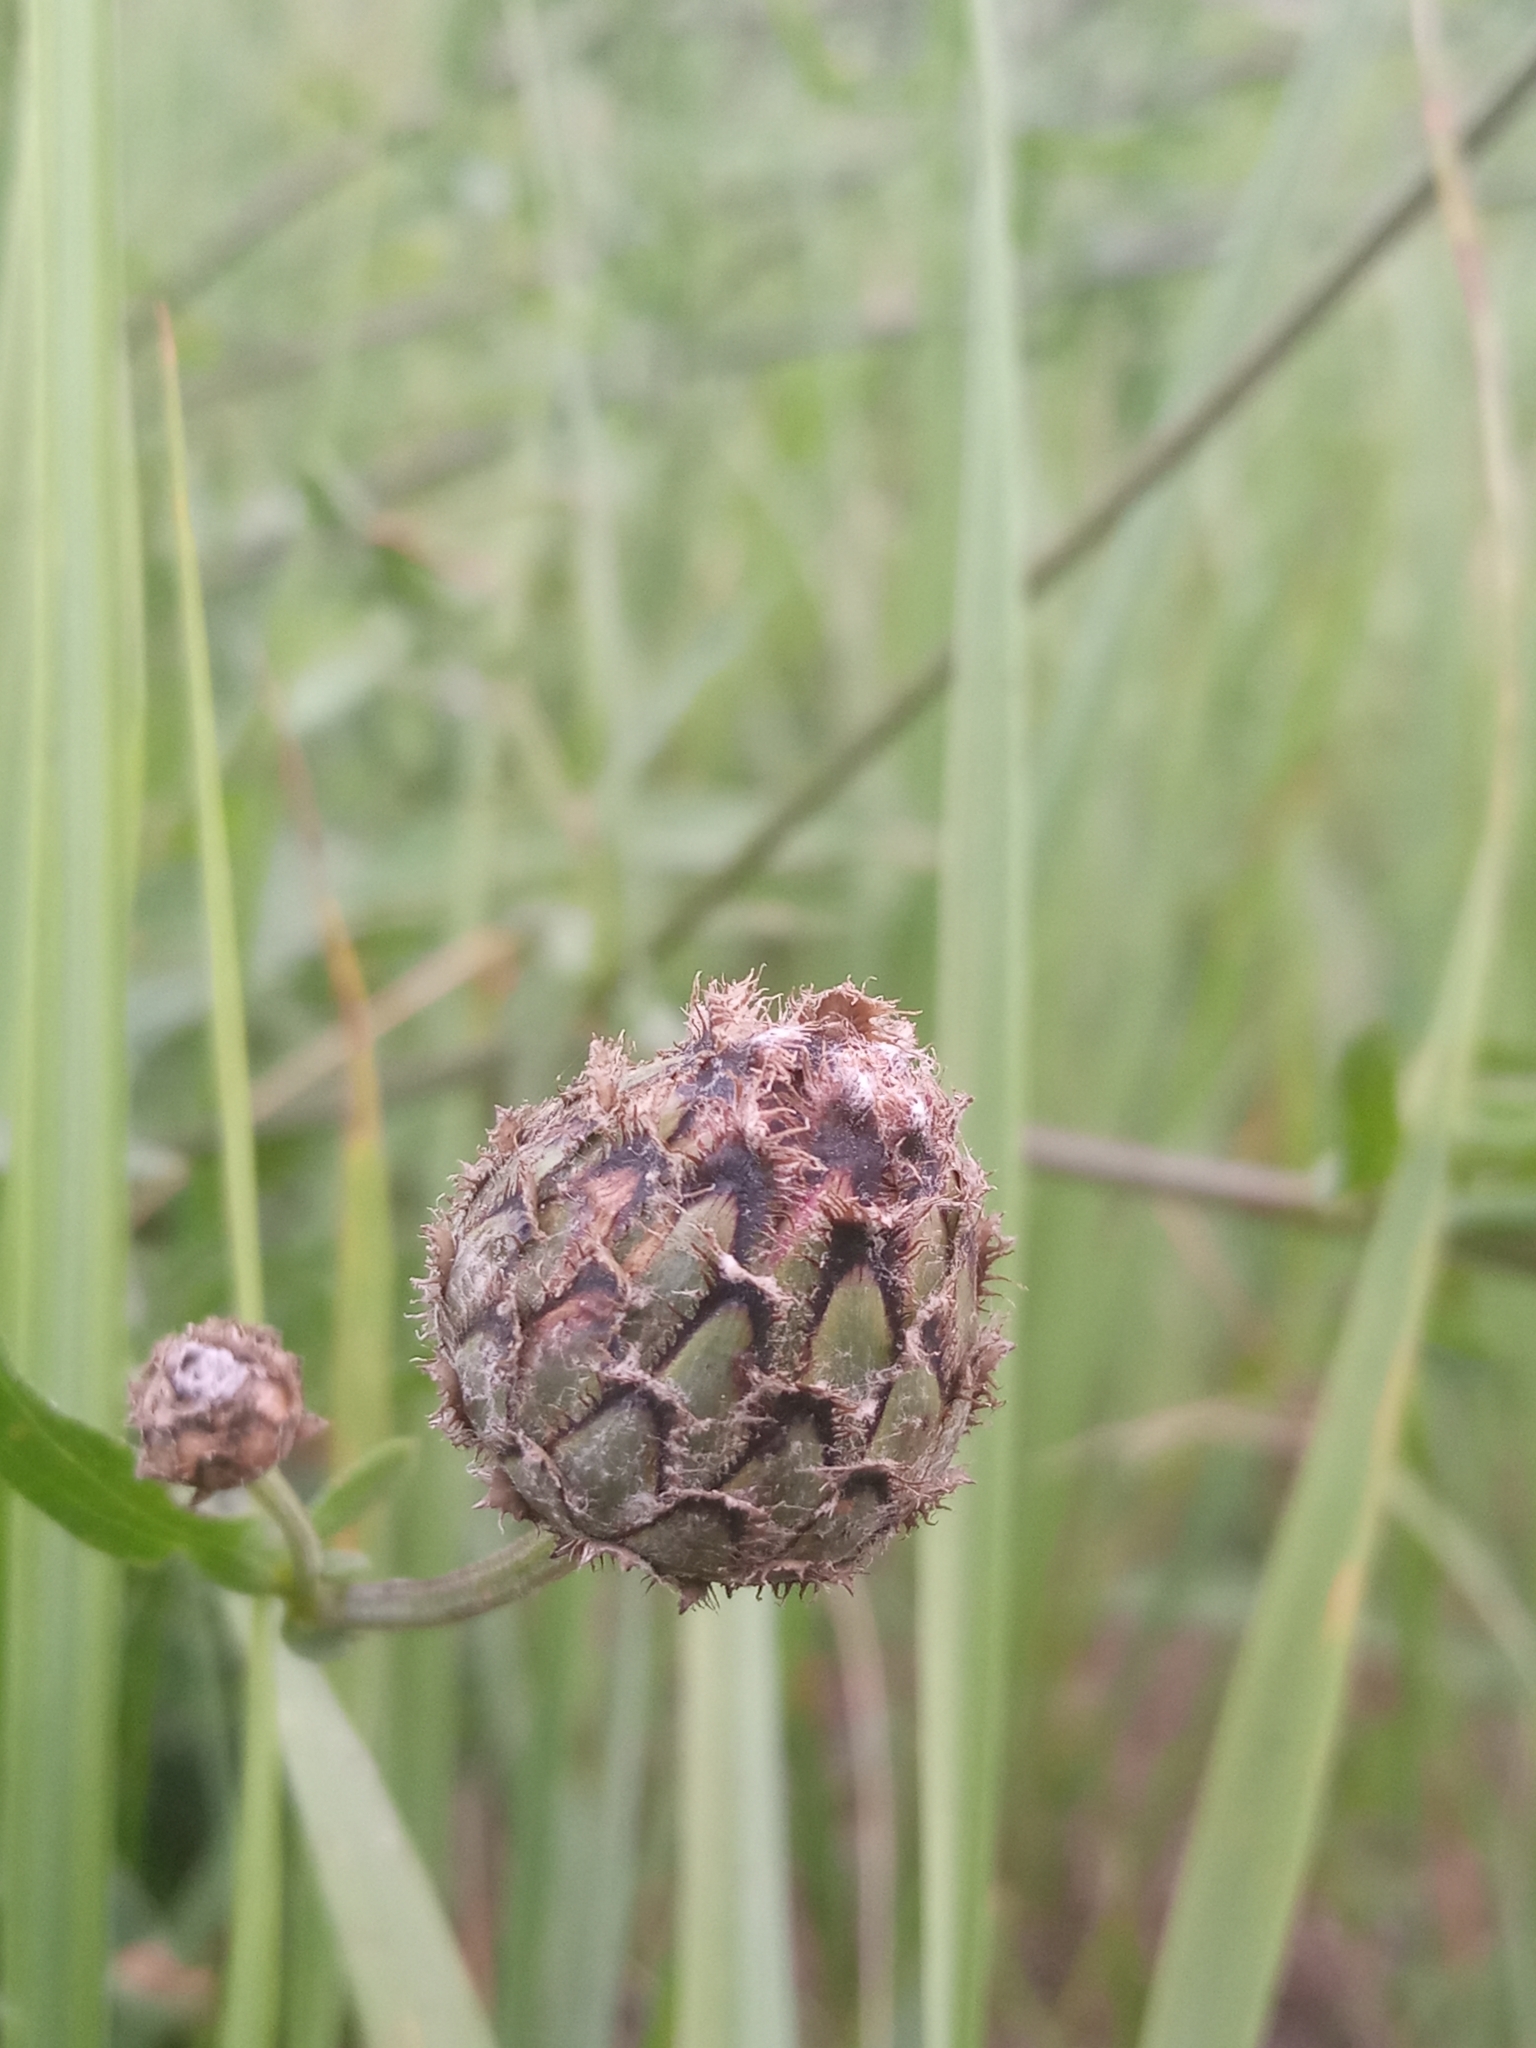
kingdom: Plantae
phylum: Tracheophyta
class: Magnoliopsida
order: Asterales
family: Asteraceae
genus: Centaurea
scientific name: Centaurea scabiosa
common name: Greater knapweed
